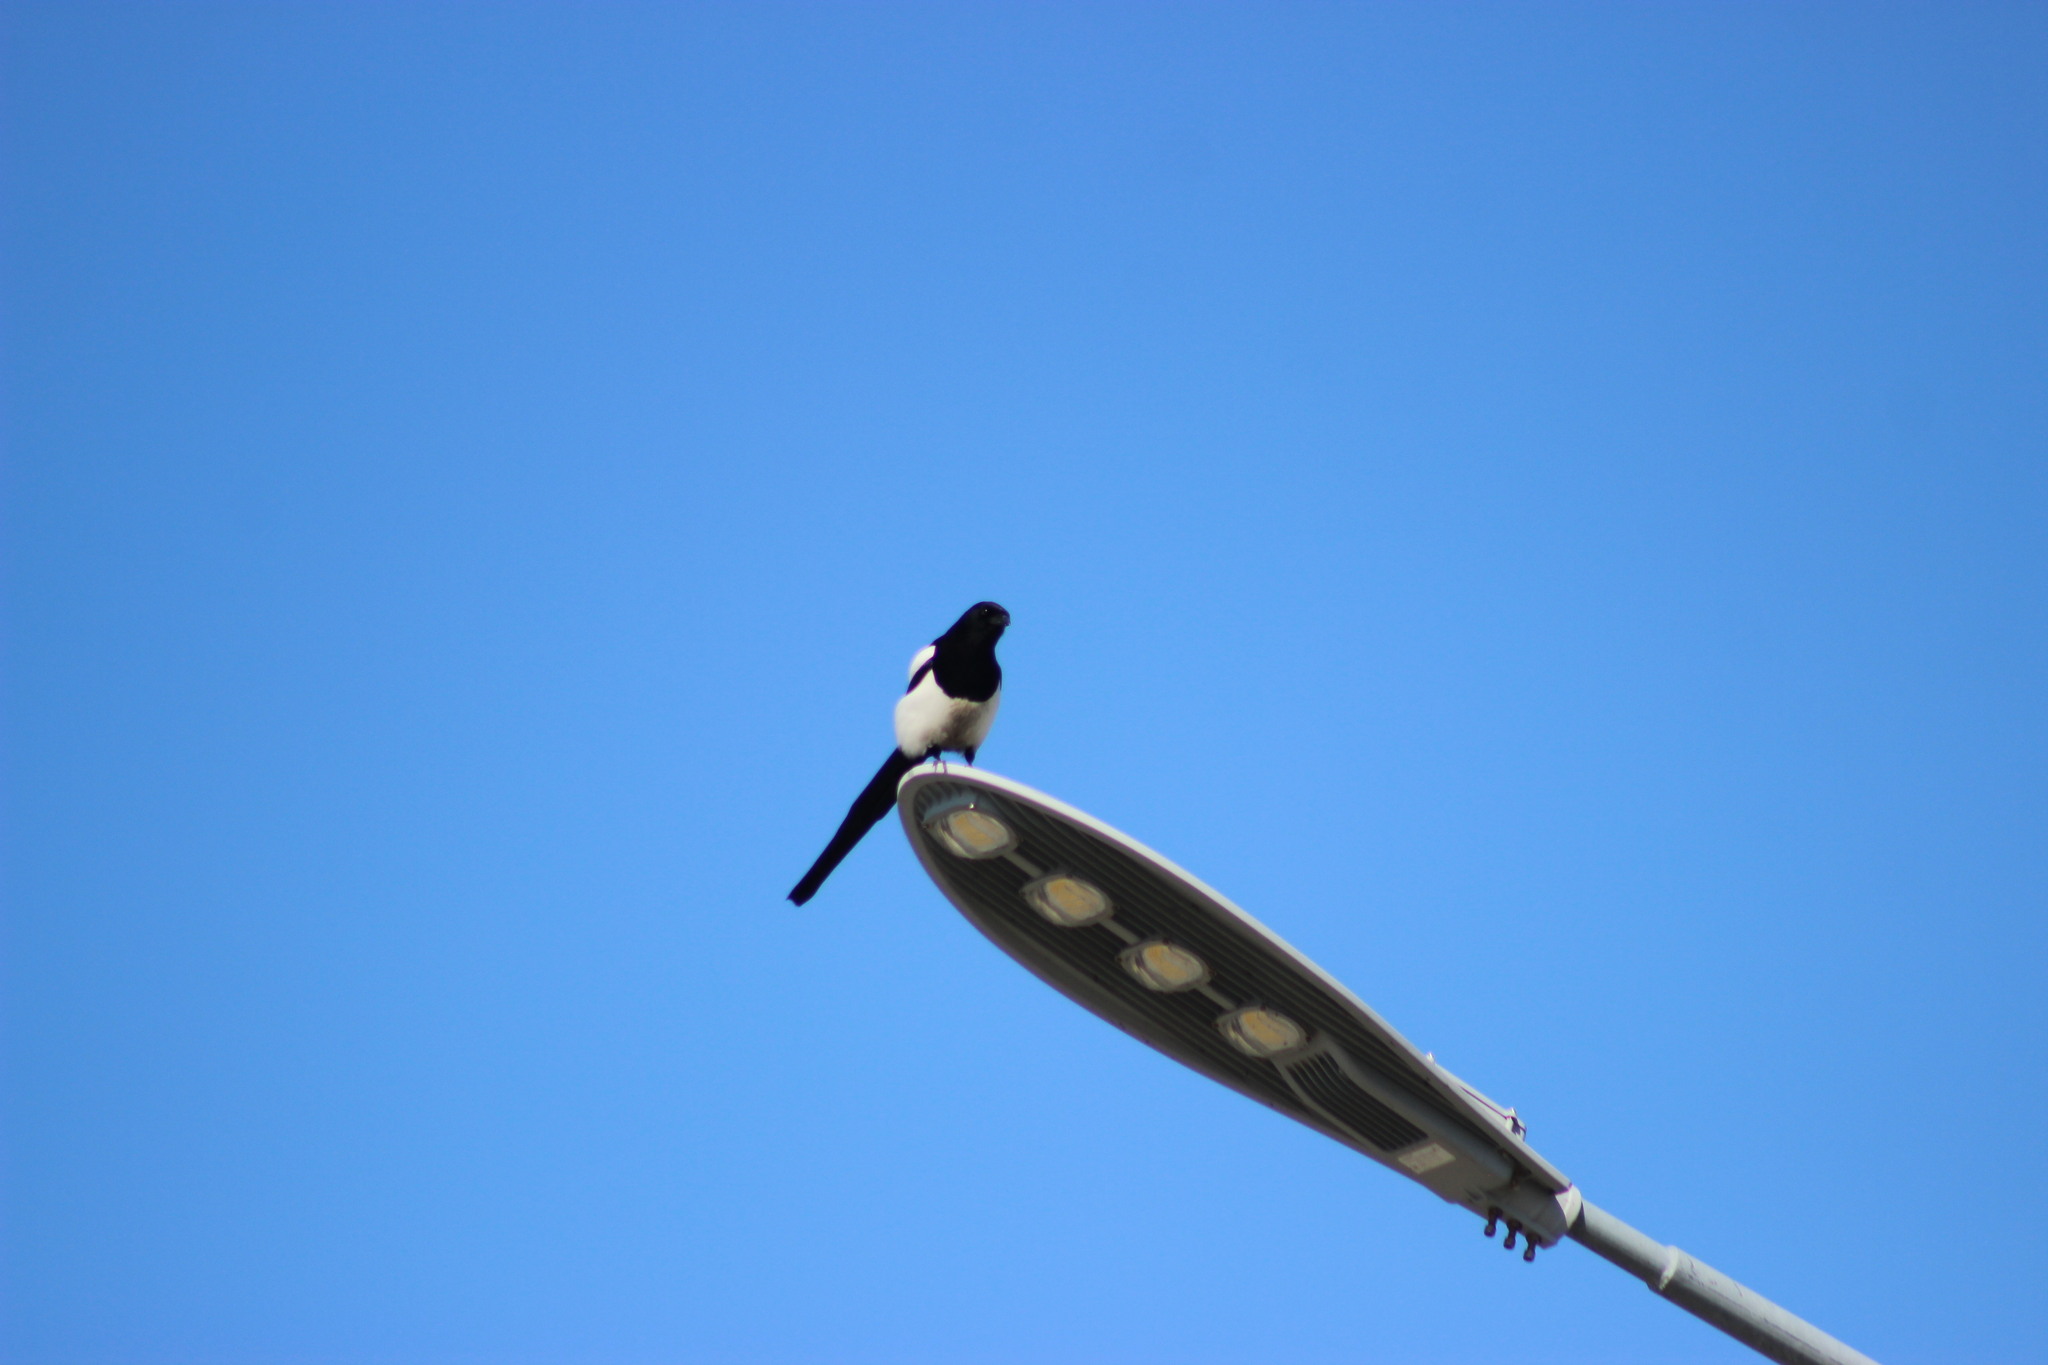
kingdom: Animalia
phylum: Chordata
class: Aves
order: Passeriformes
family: Corvidae
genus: Pica
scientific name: Pica pica
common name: Eurasian magpie
